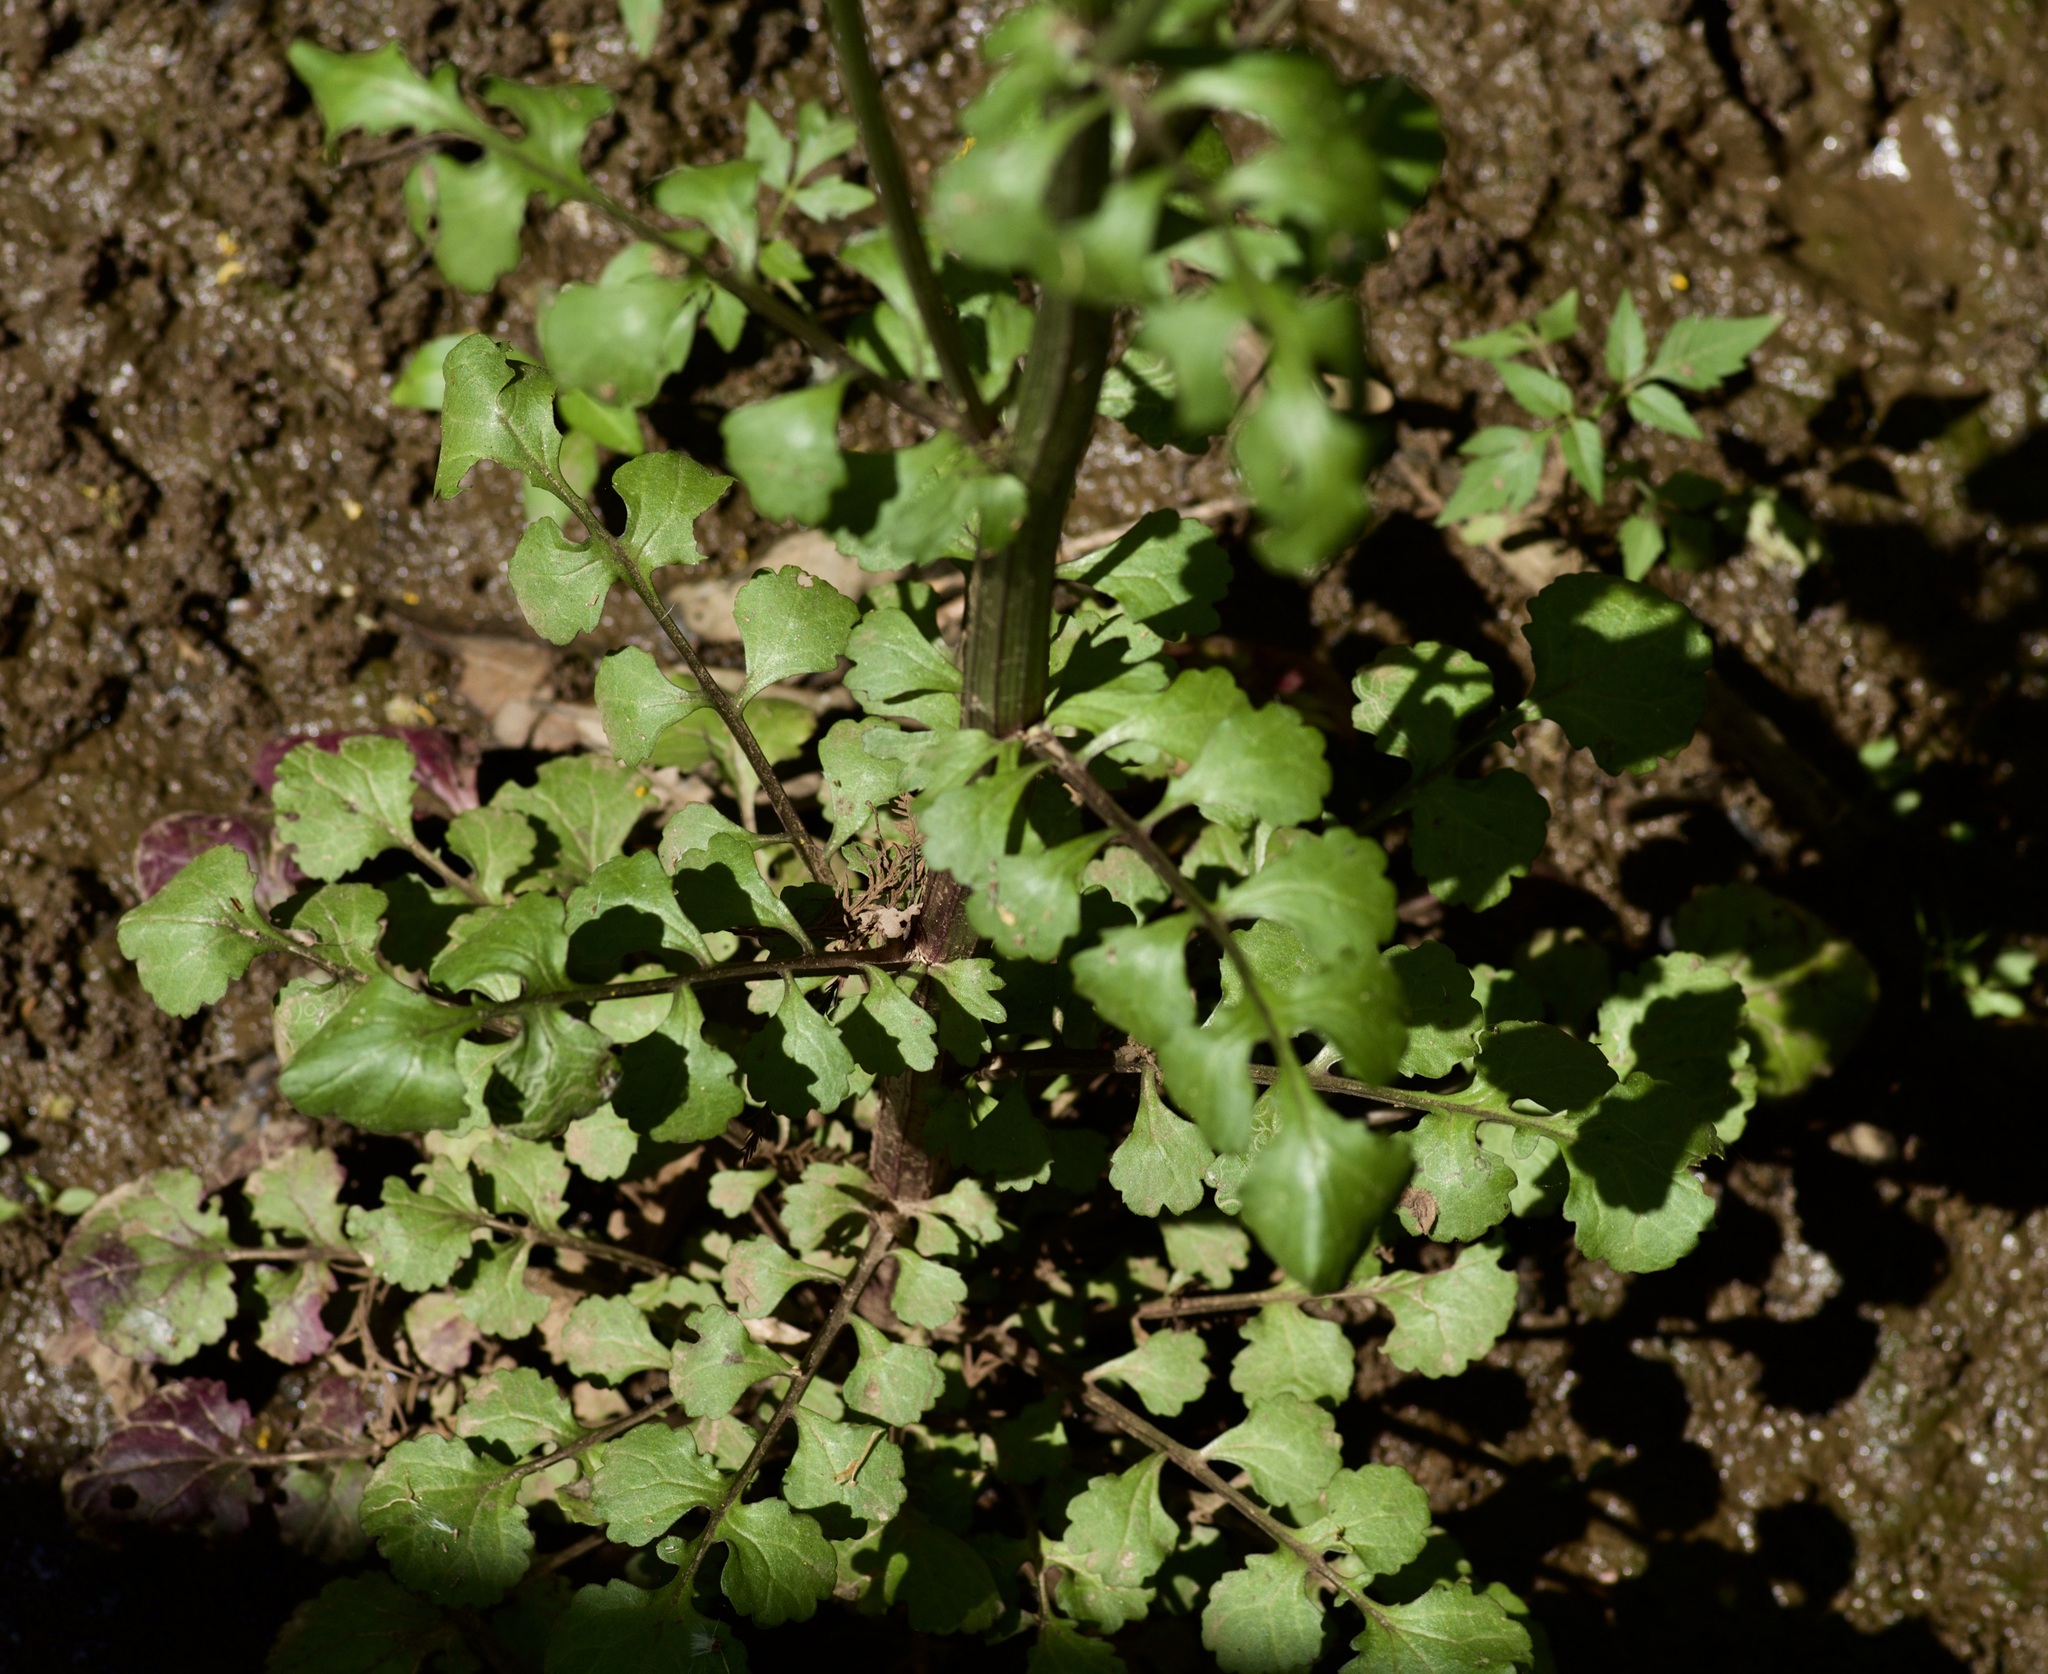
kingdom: Plantae
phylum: Tracheophyta
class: Magnoliopsida
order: Asterales
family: Asteraceae
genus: Packera
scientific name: Packera glabella
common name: Butterweed
